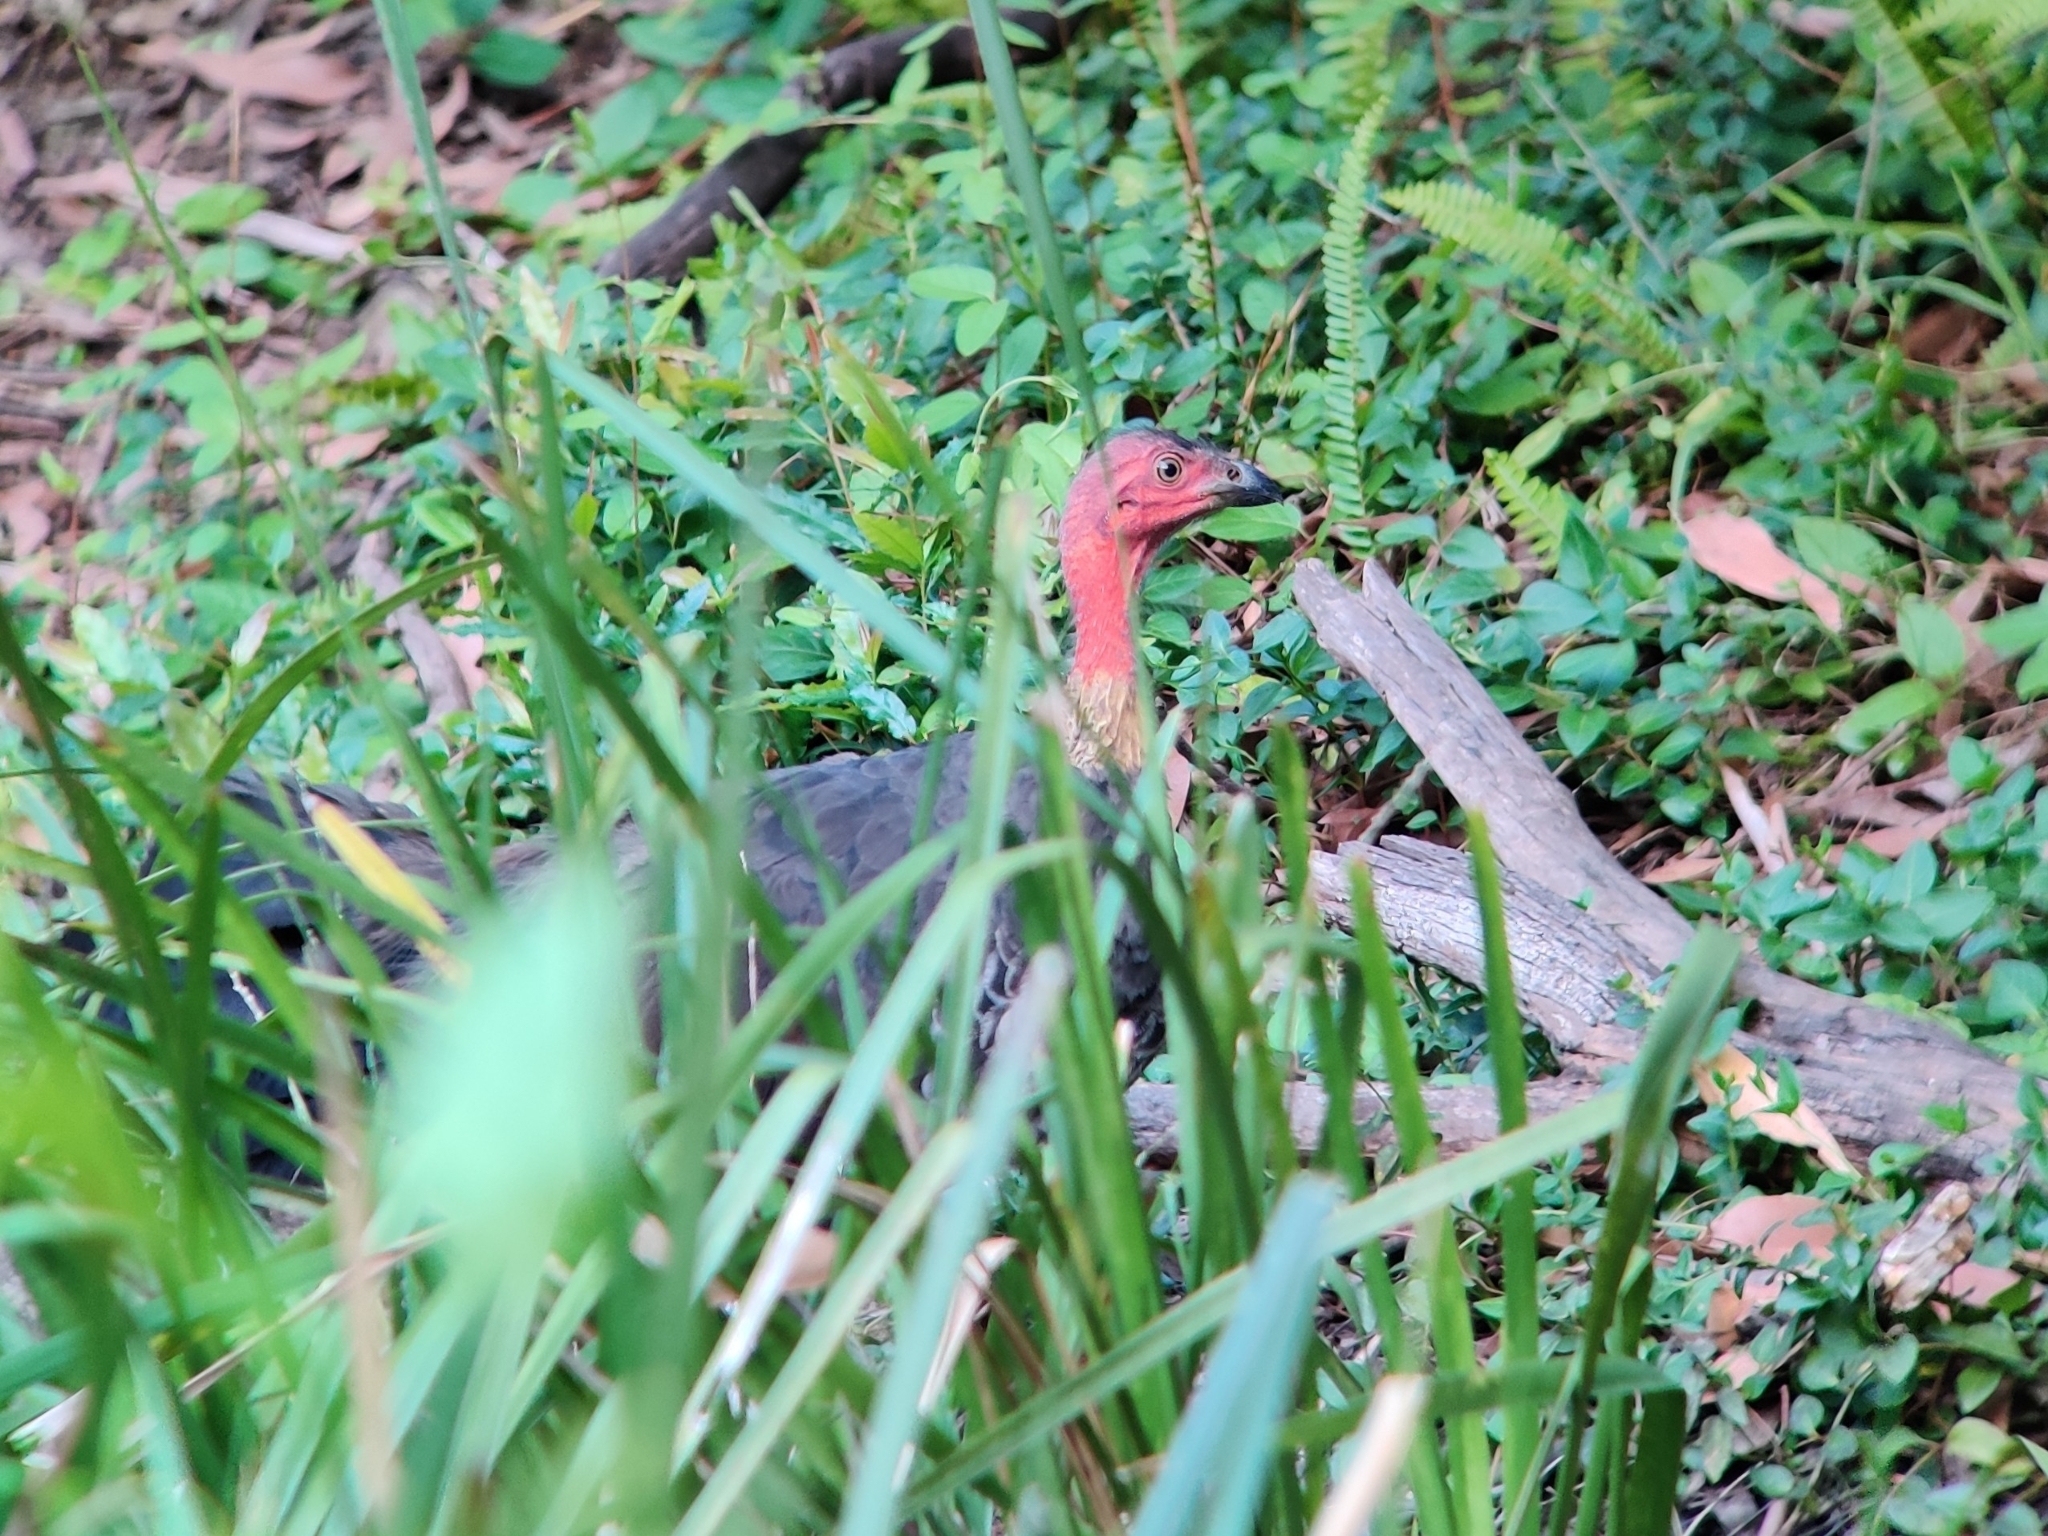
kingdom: Animalia
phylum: Chordata
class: Aves
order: Galliformes
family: Megapodiidae
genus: Alectura
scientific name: Alectura lathami
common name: Australian brushturkey
